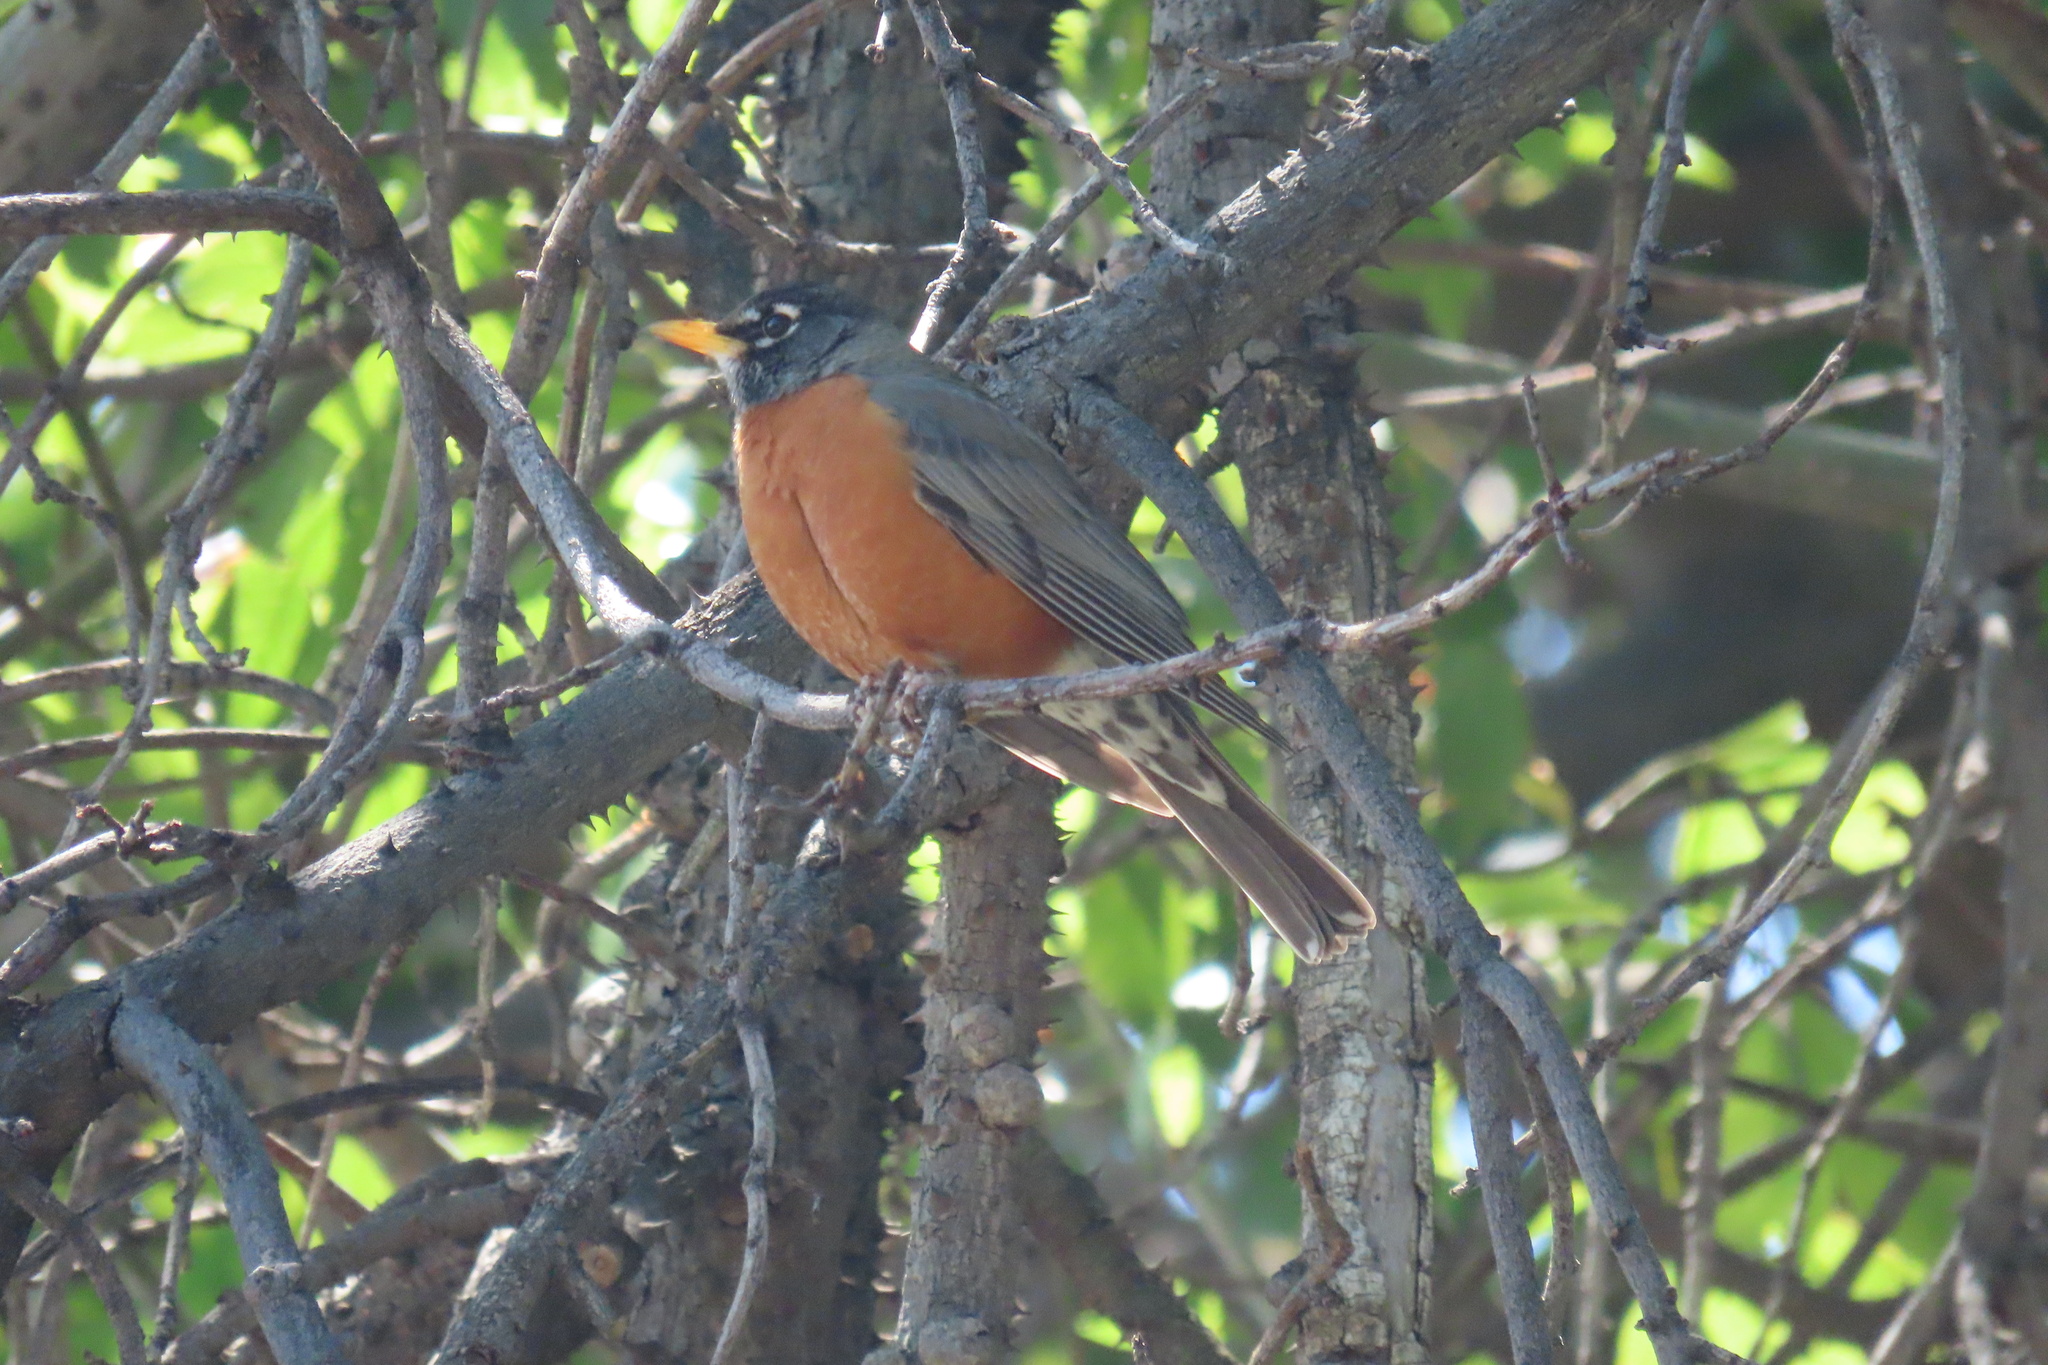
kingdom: Animalia
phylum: Chordata
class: Aves
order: Passeriformes
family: Turdidae
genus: Turdus
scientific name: Turdus migratorius
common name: American robin
